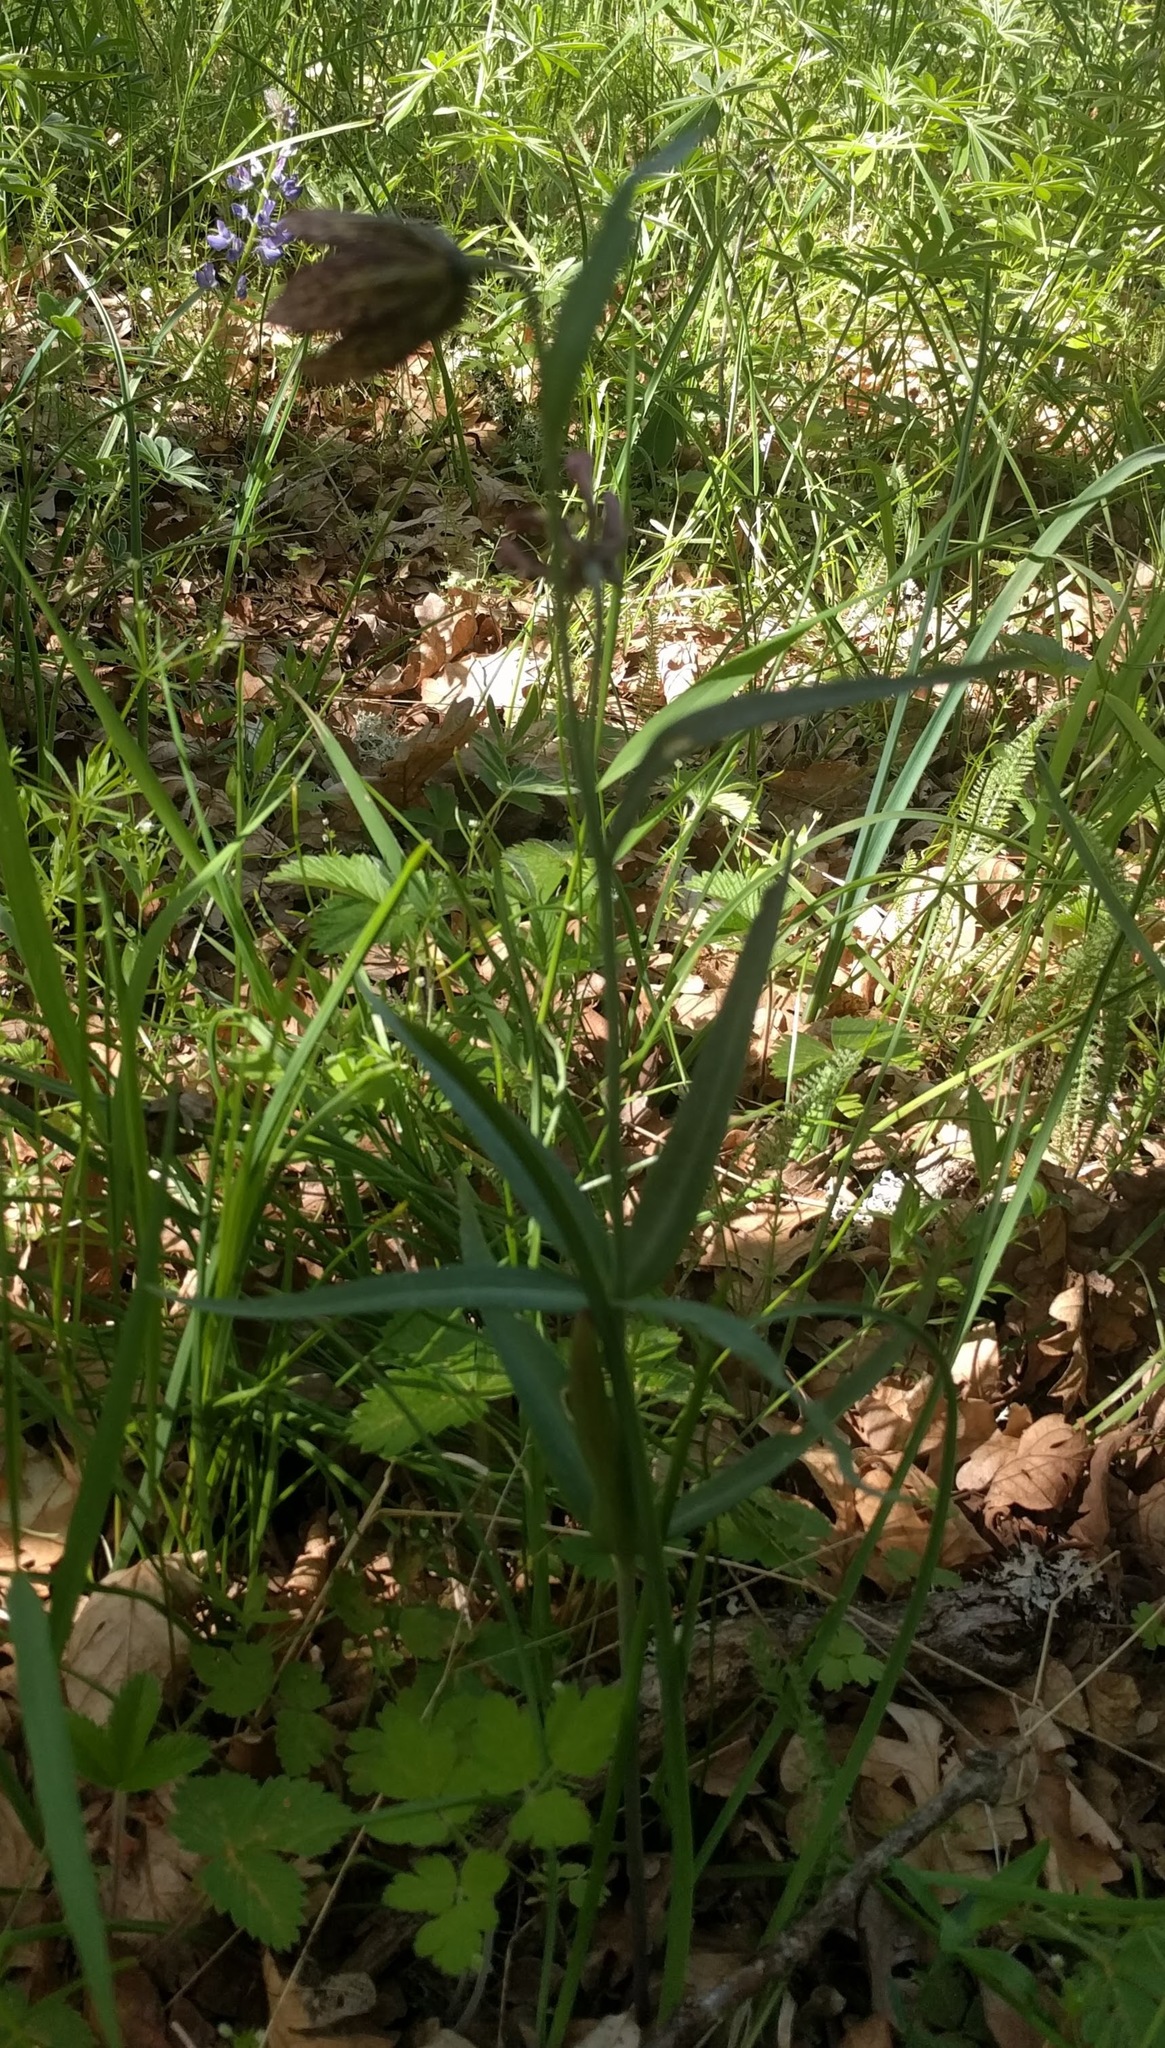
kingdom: Plantae
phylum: Tracheophyta
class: Liliopsida
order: Liliales
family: Liliaceae
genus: Fritillaria
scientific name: Fritillaria affinis
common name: Ojai fritillary
